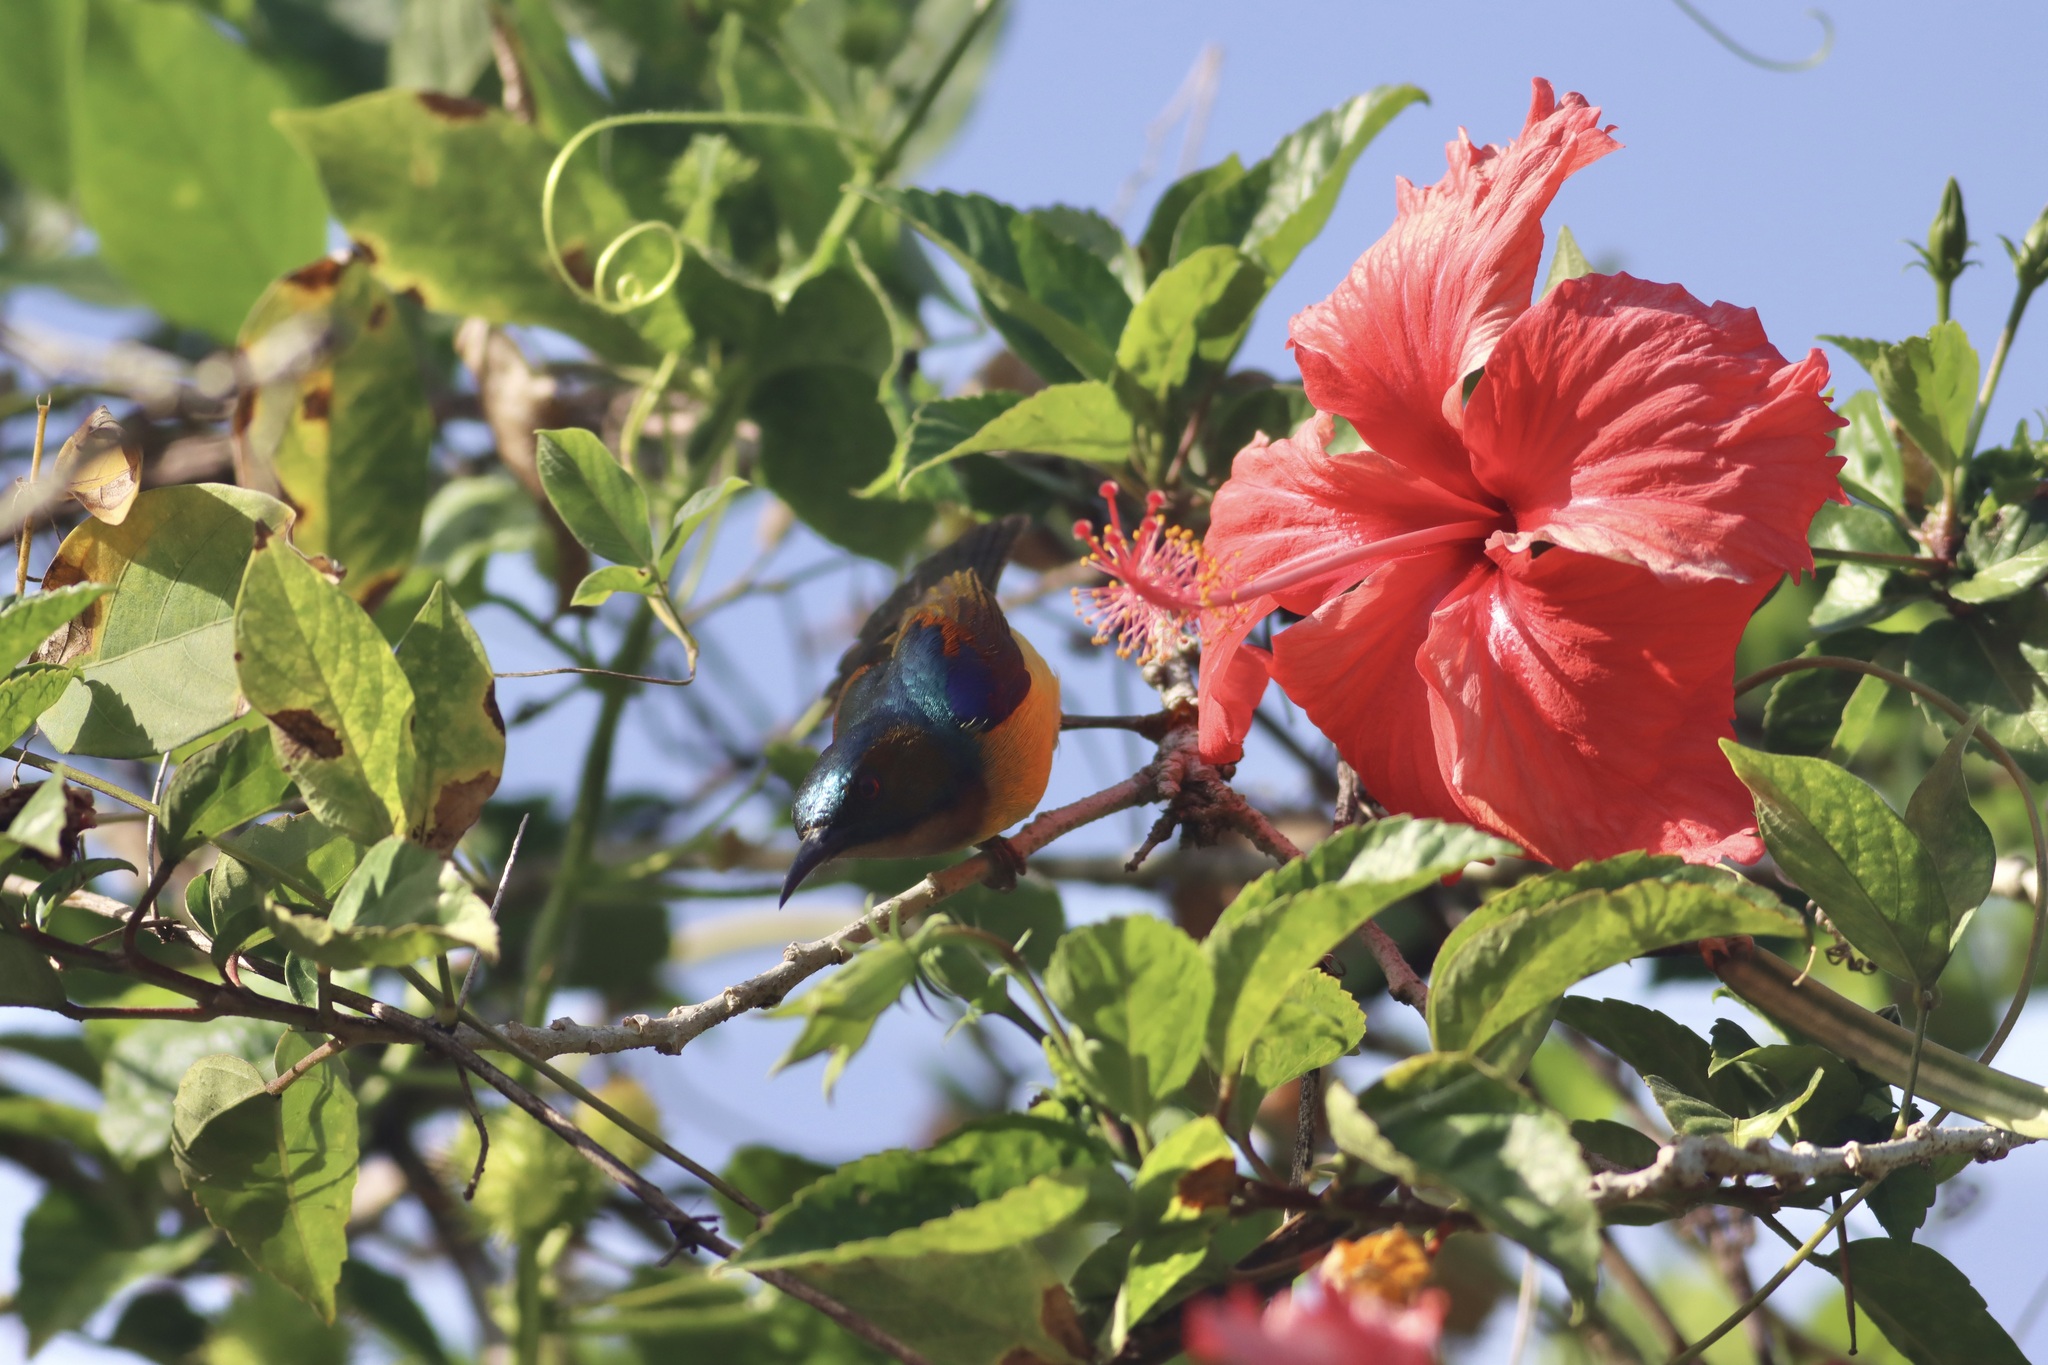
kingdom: Animalia
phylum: Chordata
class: Aves
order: Passeriformes
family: Nectariniidae
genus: Anthreptes
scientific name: Anthreptes malacensis
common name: Brown-throated sunbird
